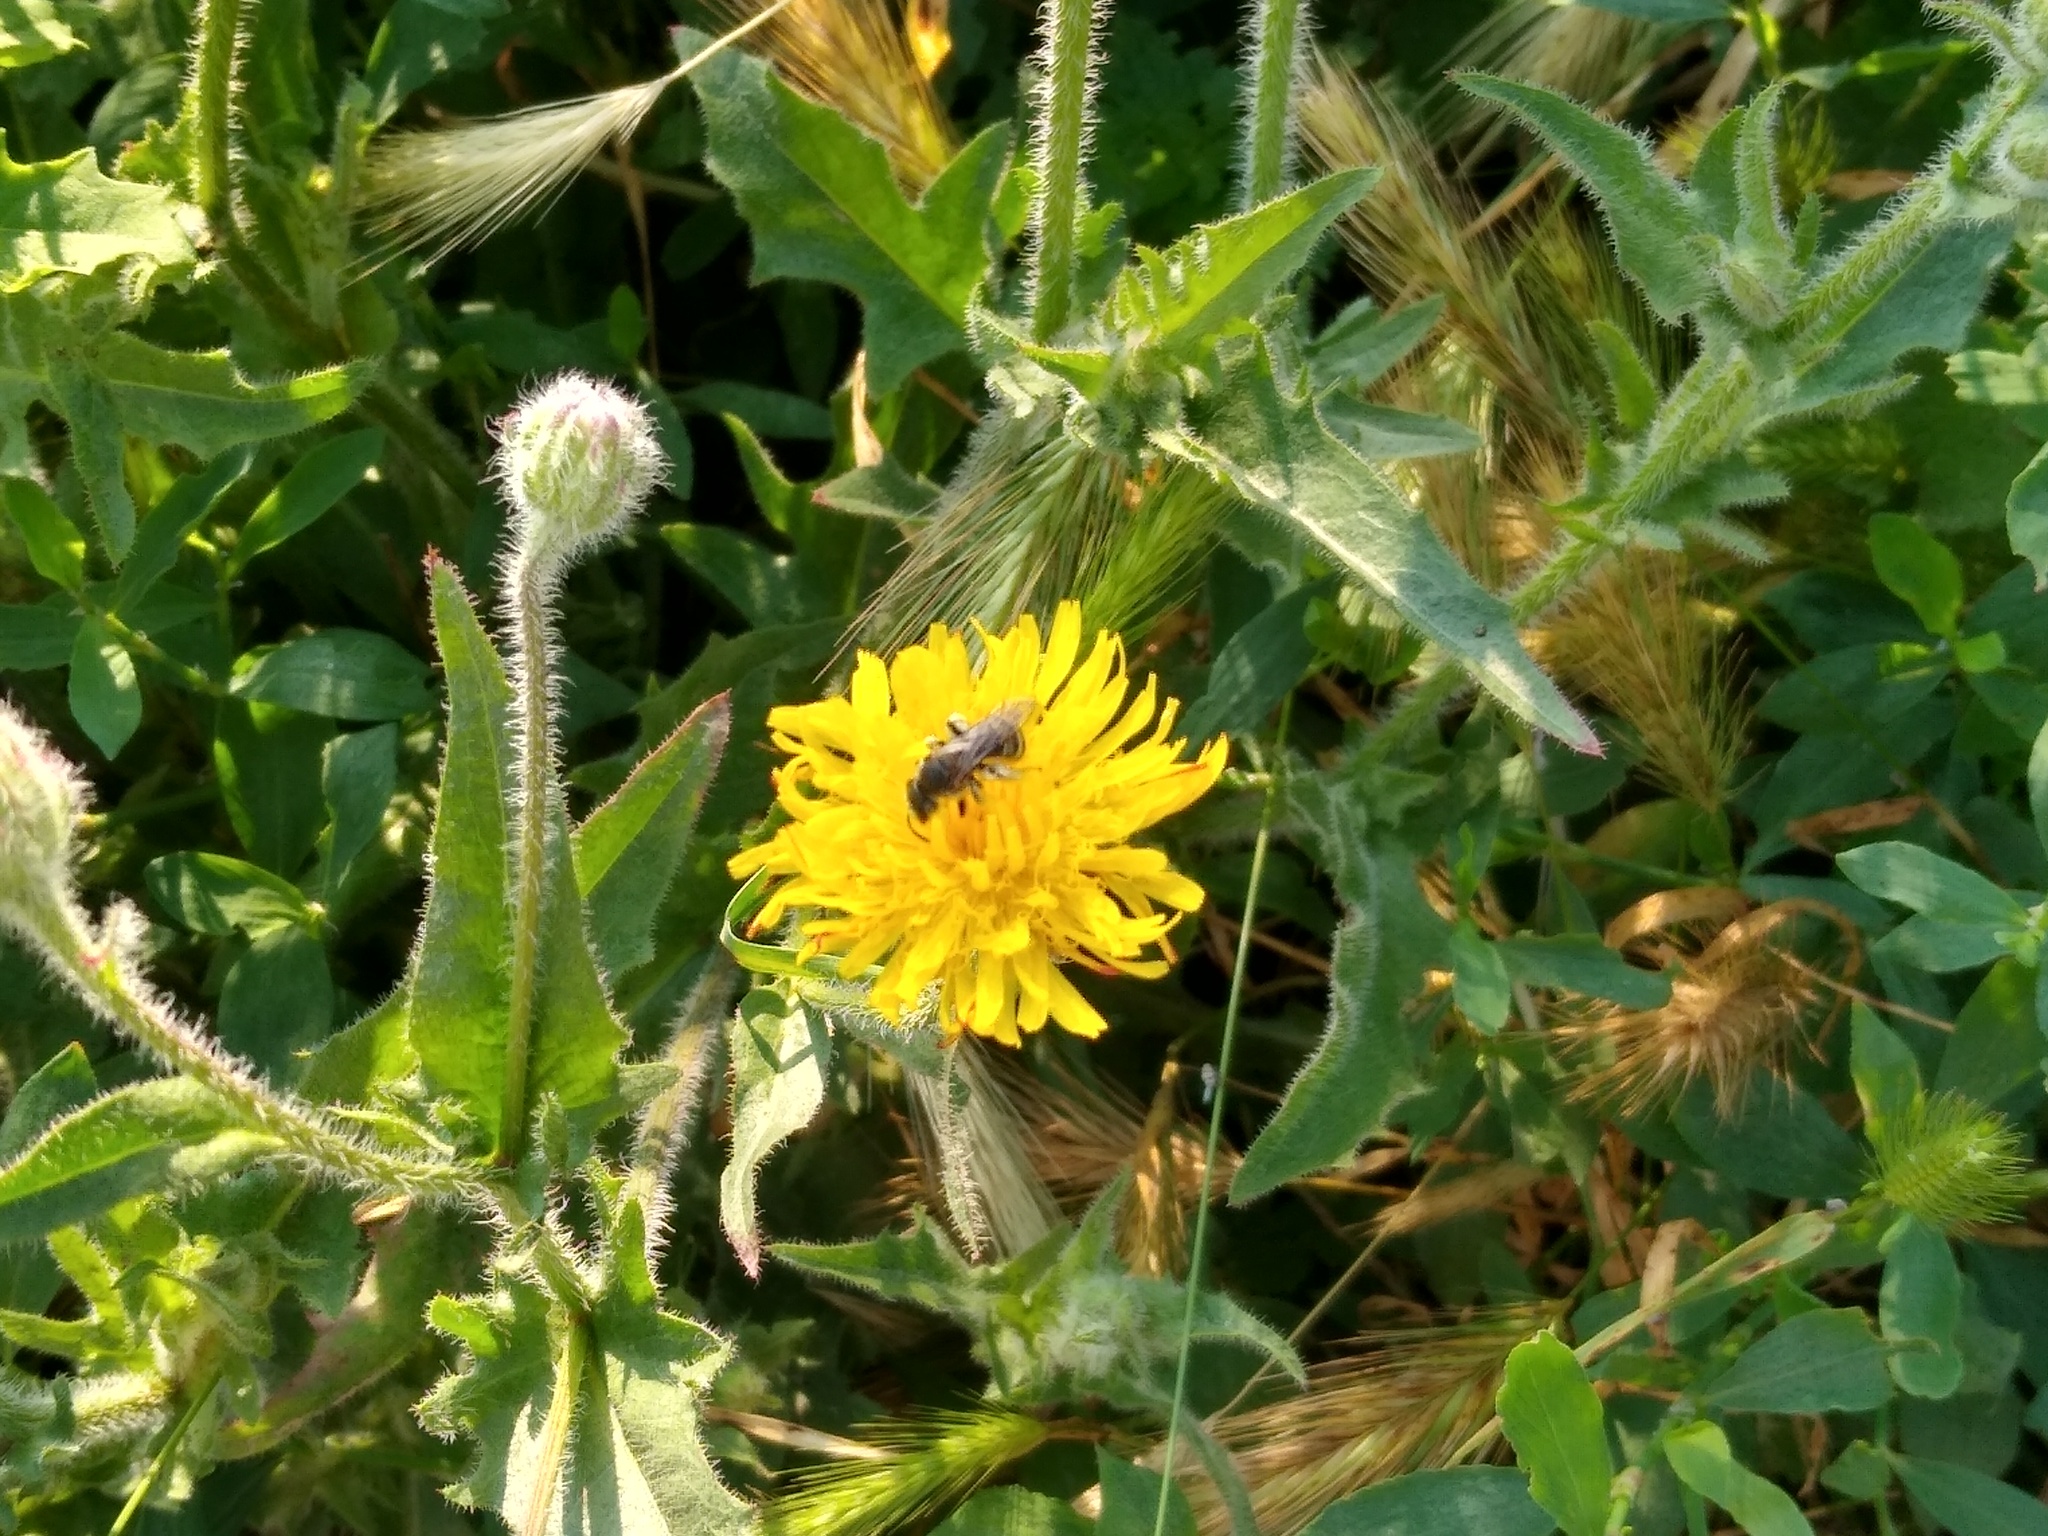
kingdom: Plantae
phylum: Tracheophyta
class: Magnoliopsida
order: Asterales
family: Asteraceae
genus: Crepis
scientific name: Crepis foetida
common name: Stinking hawk's-beard
